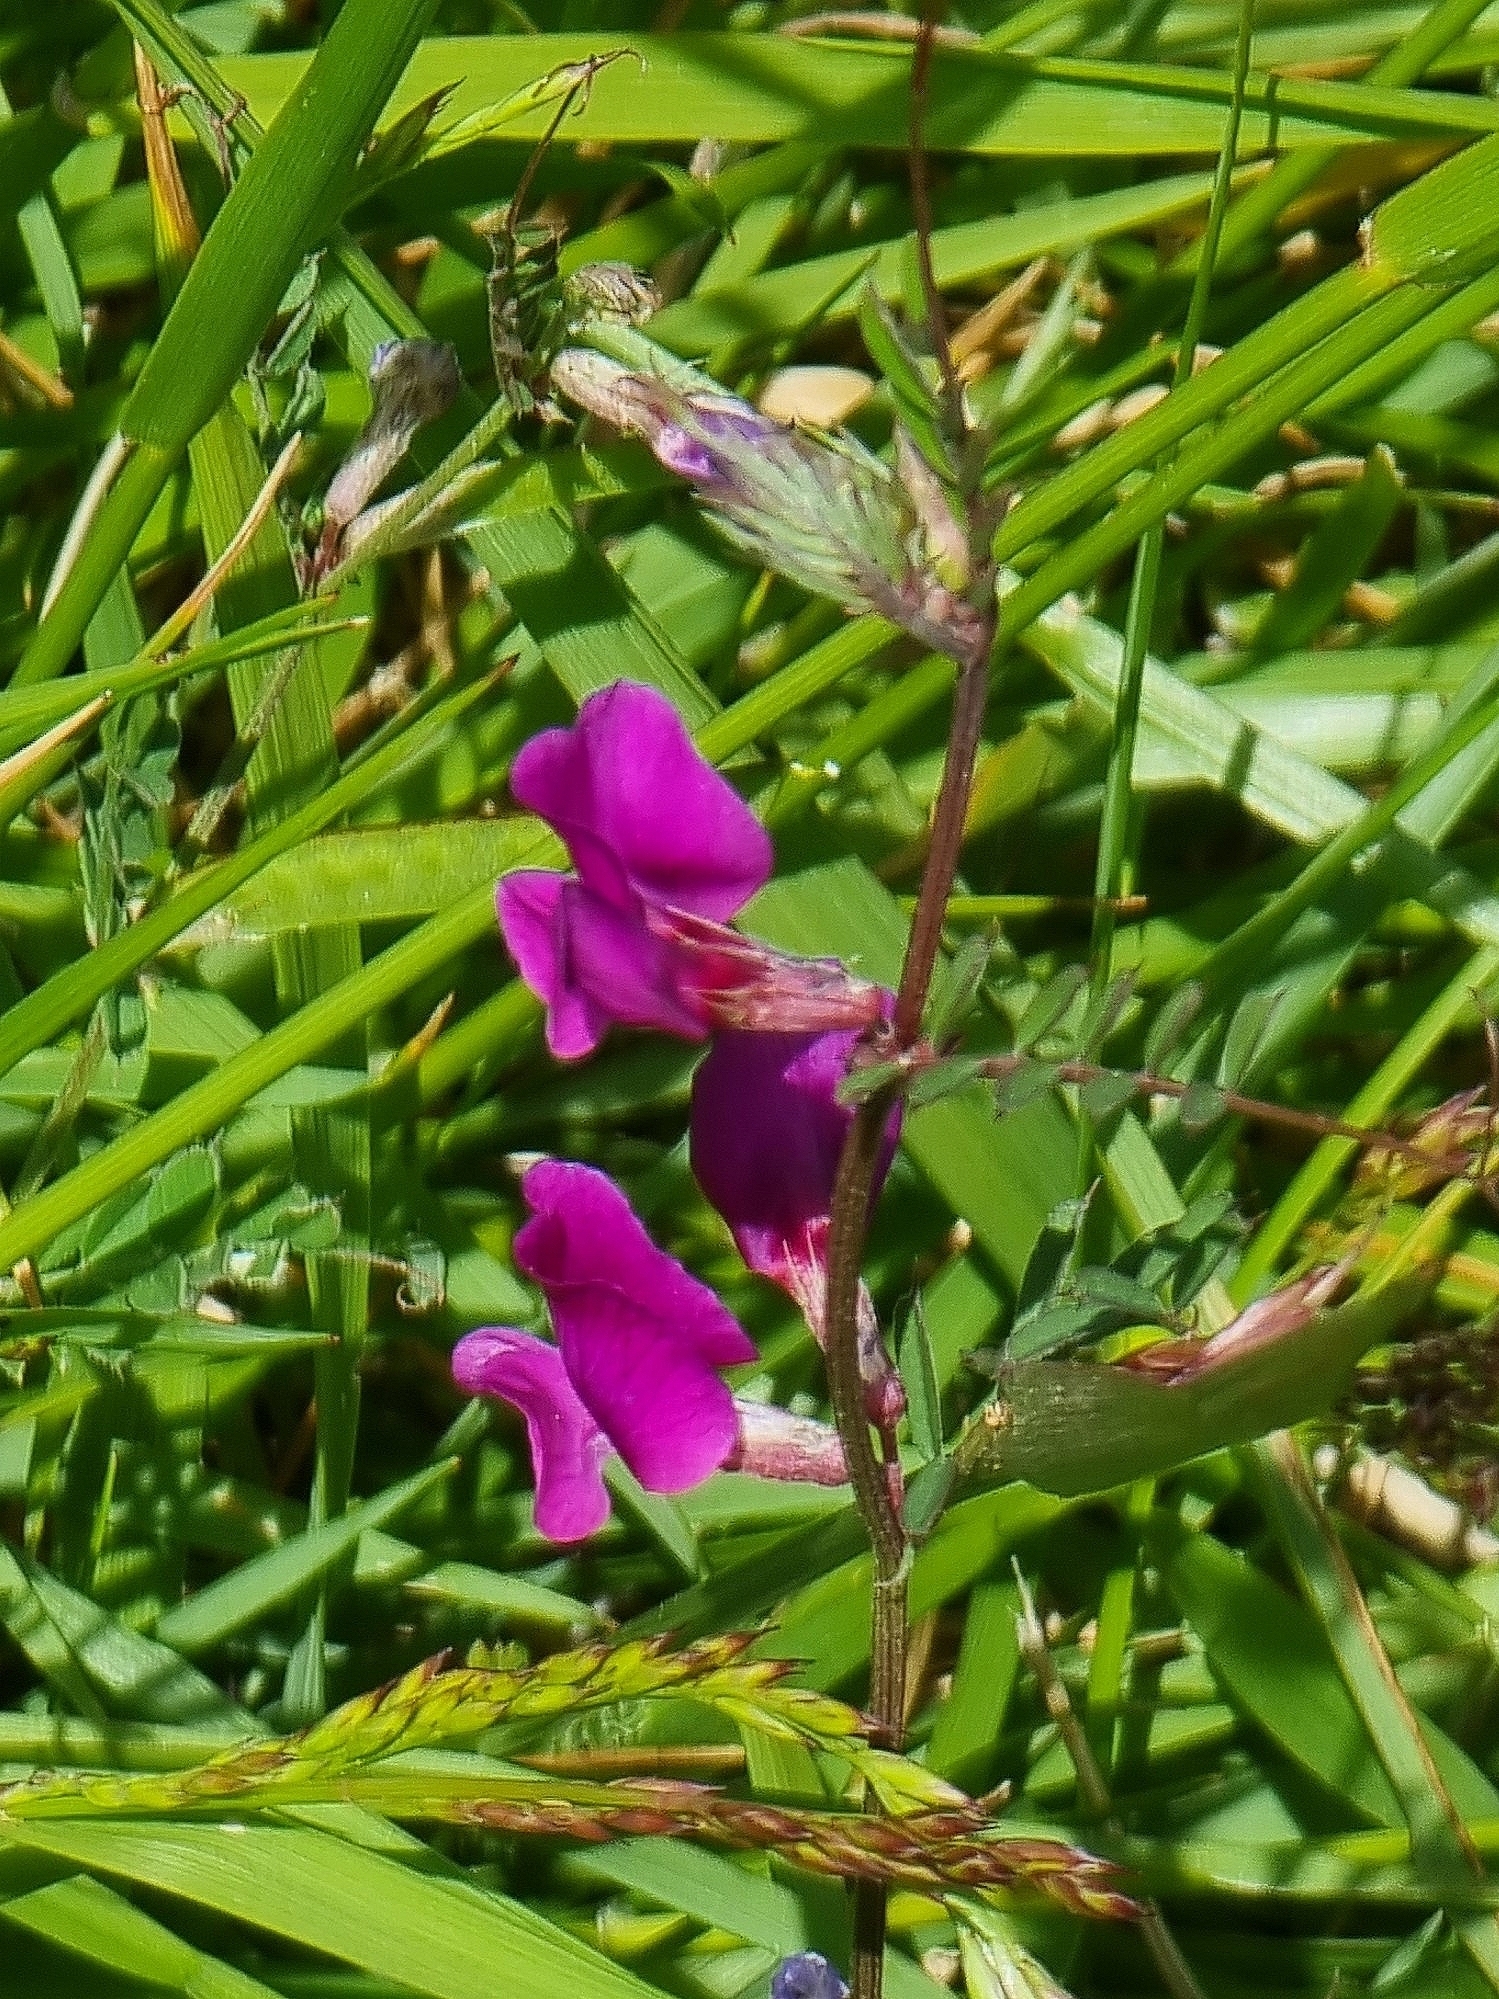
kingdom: Plantae
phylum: Tracheophyta
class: Magnoliopsida
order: Fabales
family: Fabaceae
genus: Vicia
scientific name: Vicia sativa
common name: Garden vetch
